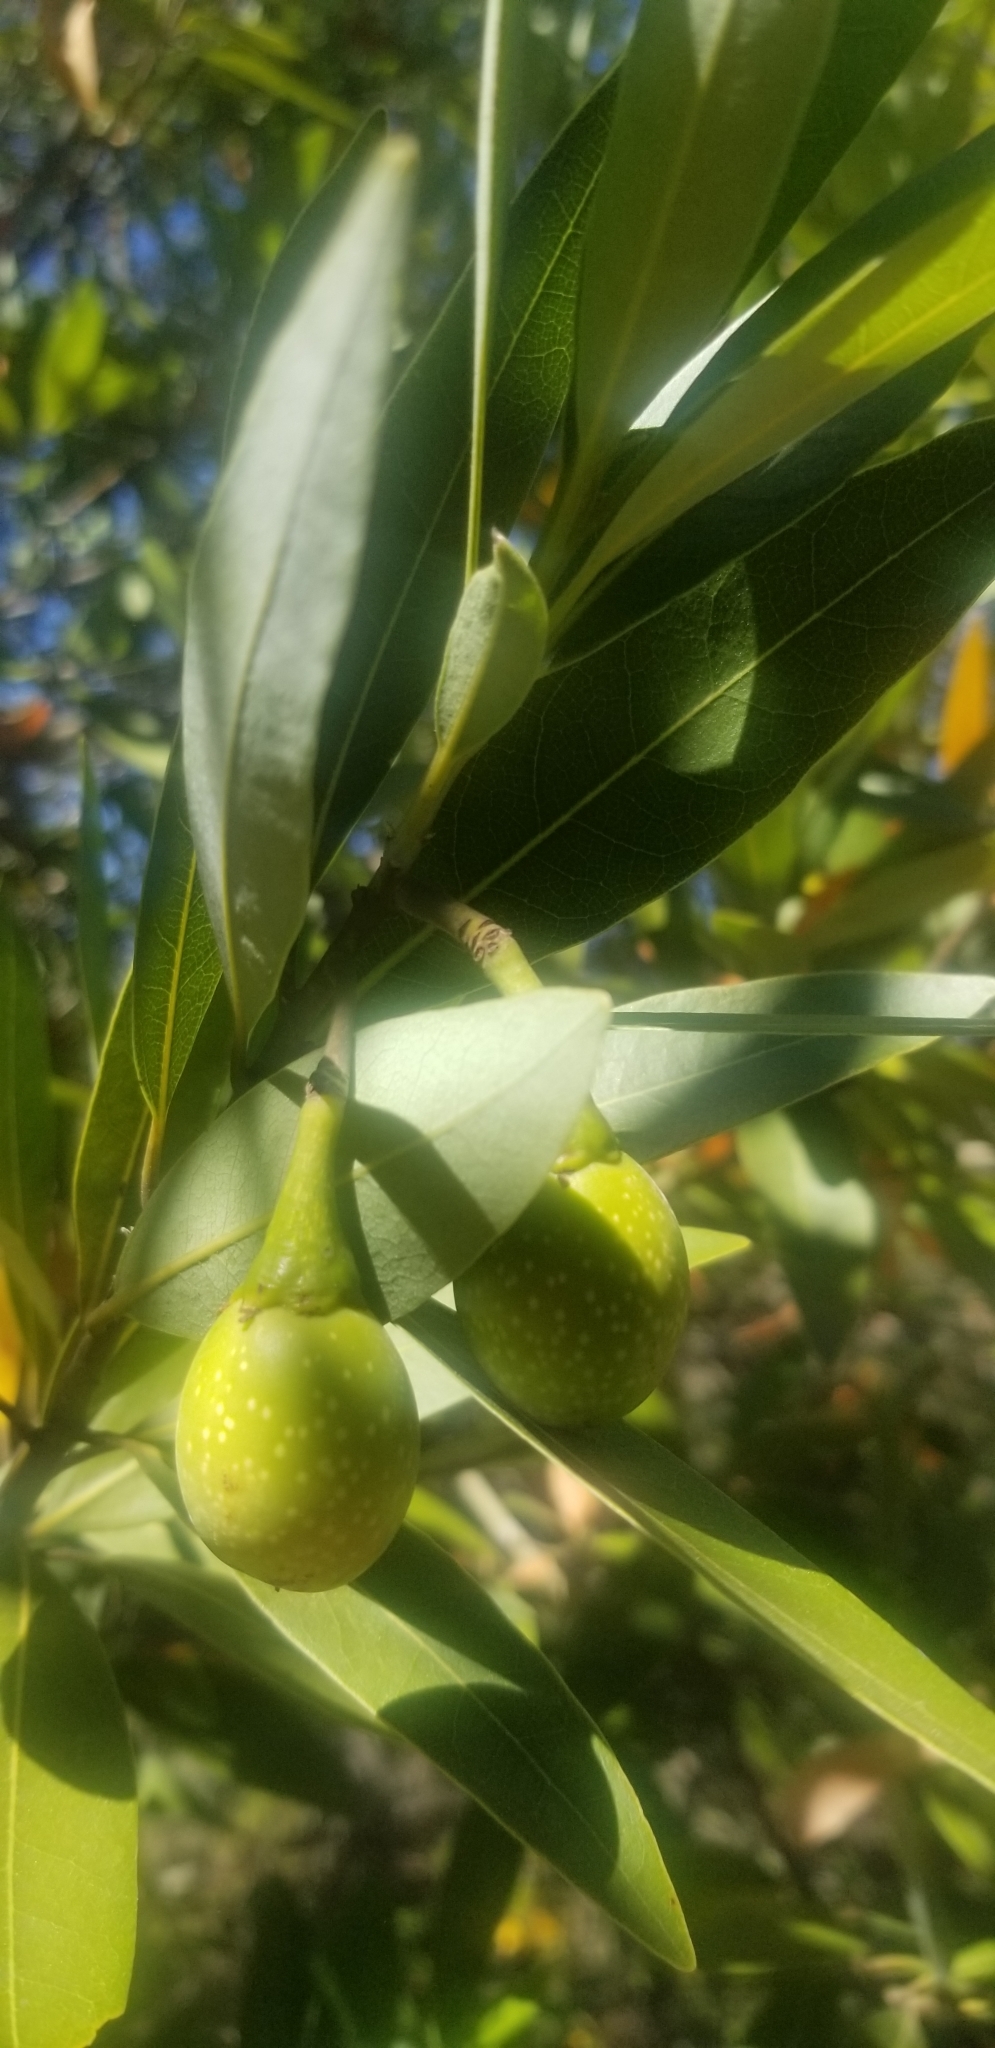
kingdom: Plantae
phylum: Tracheophyta
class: Magnoliopsida
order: Laurales
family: Lauraceae
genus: Umbellularia
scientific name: Umbellularia californica
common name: California bay
